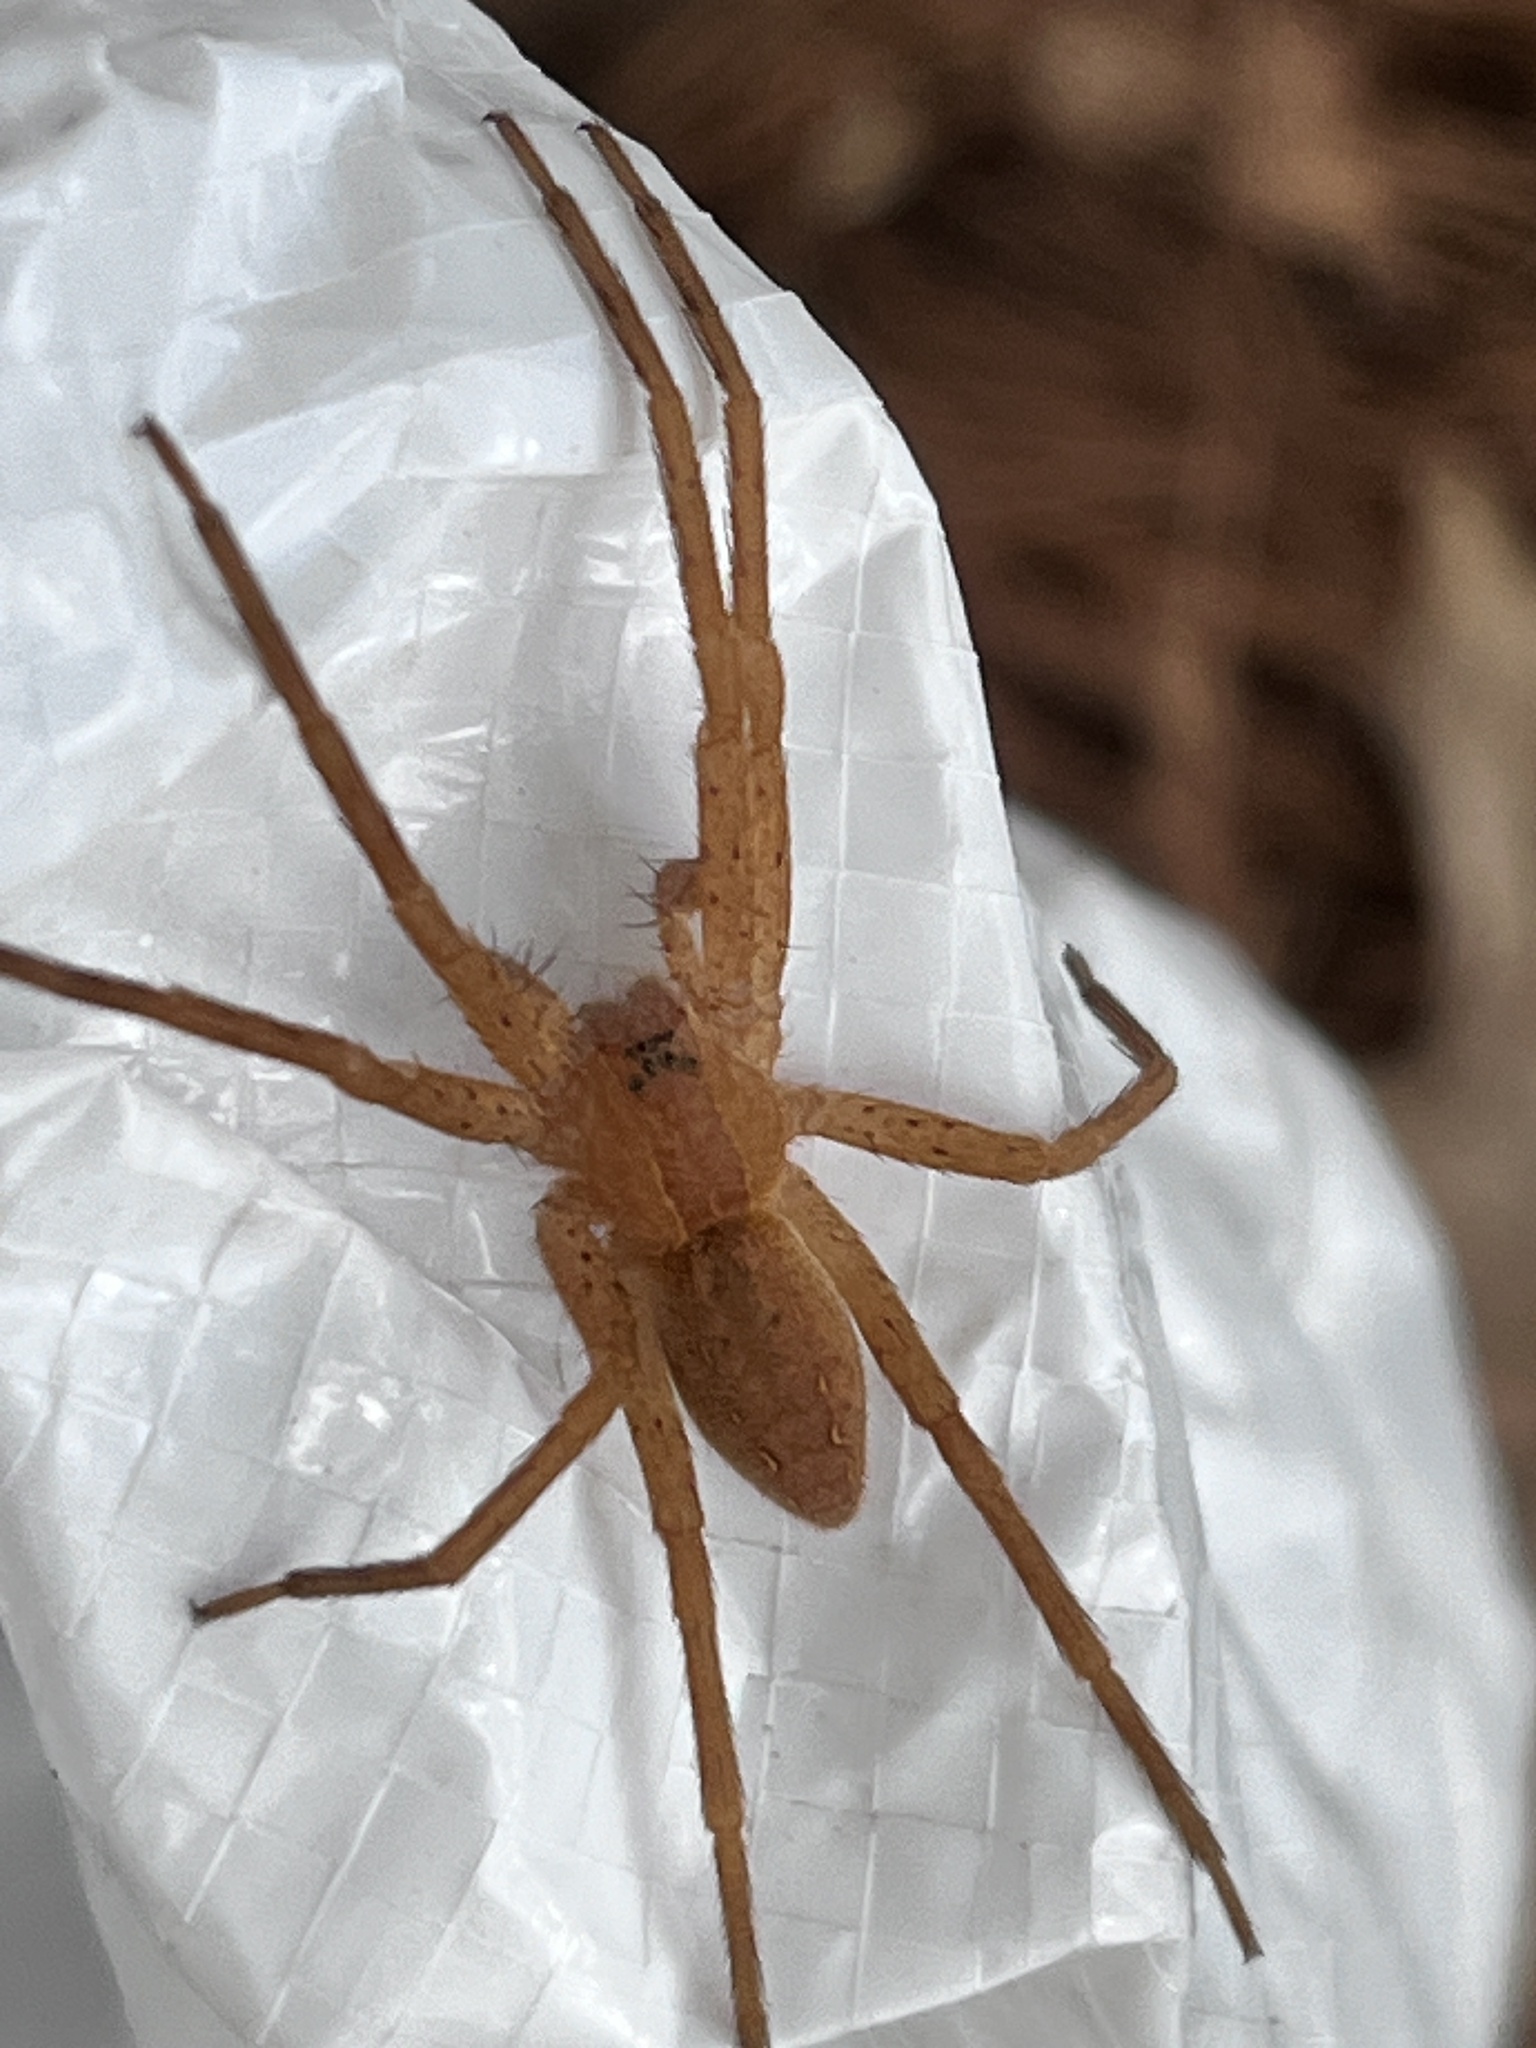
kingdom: Animalia
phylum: Arthropoda
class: Arachnida
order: Araneae
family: Pisauridae
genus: Pisaurina
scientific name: Pisaurina mira
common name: American nursery web spider
